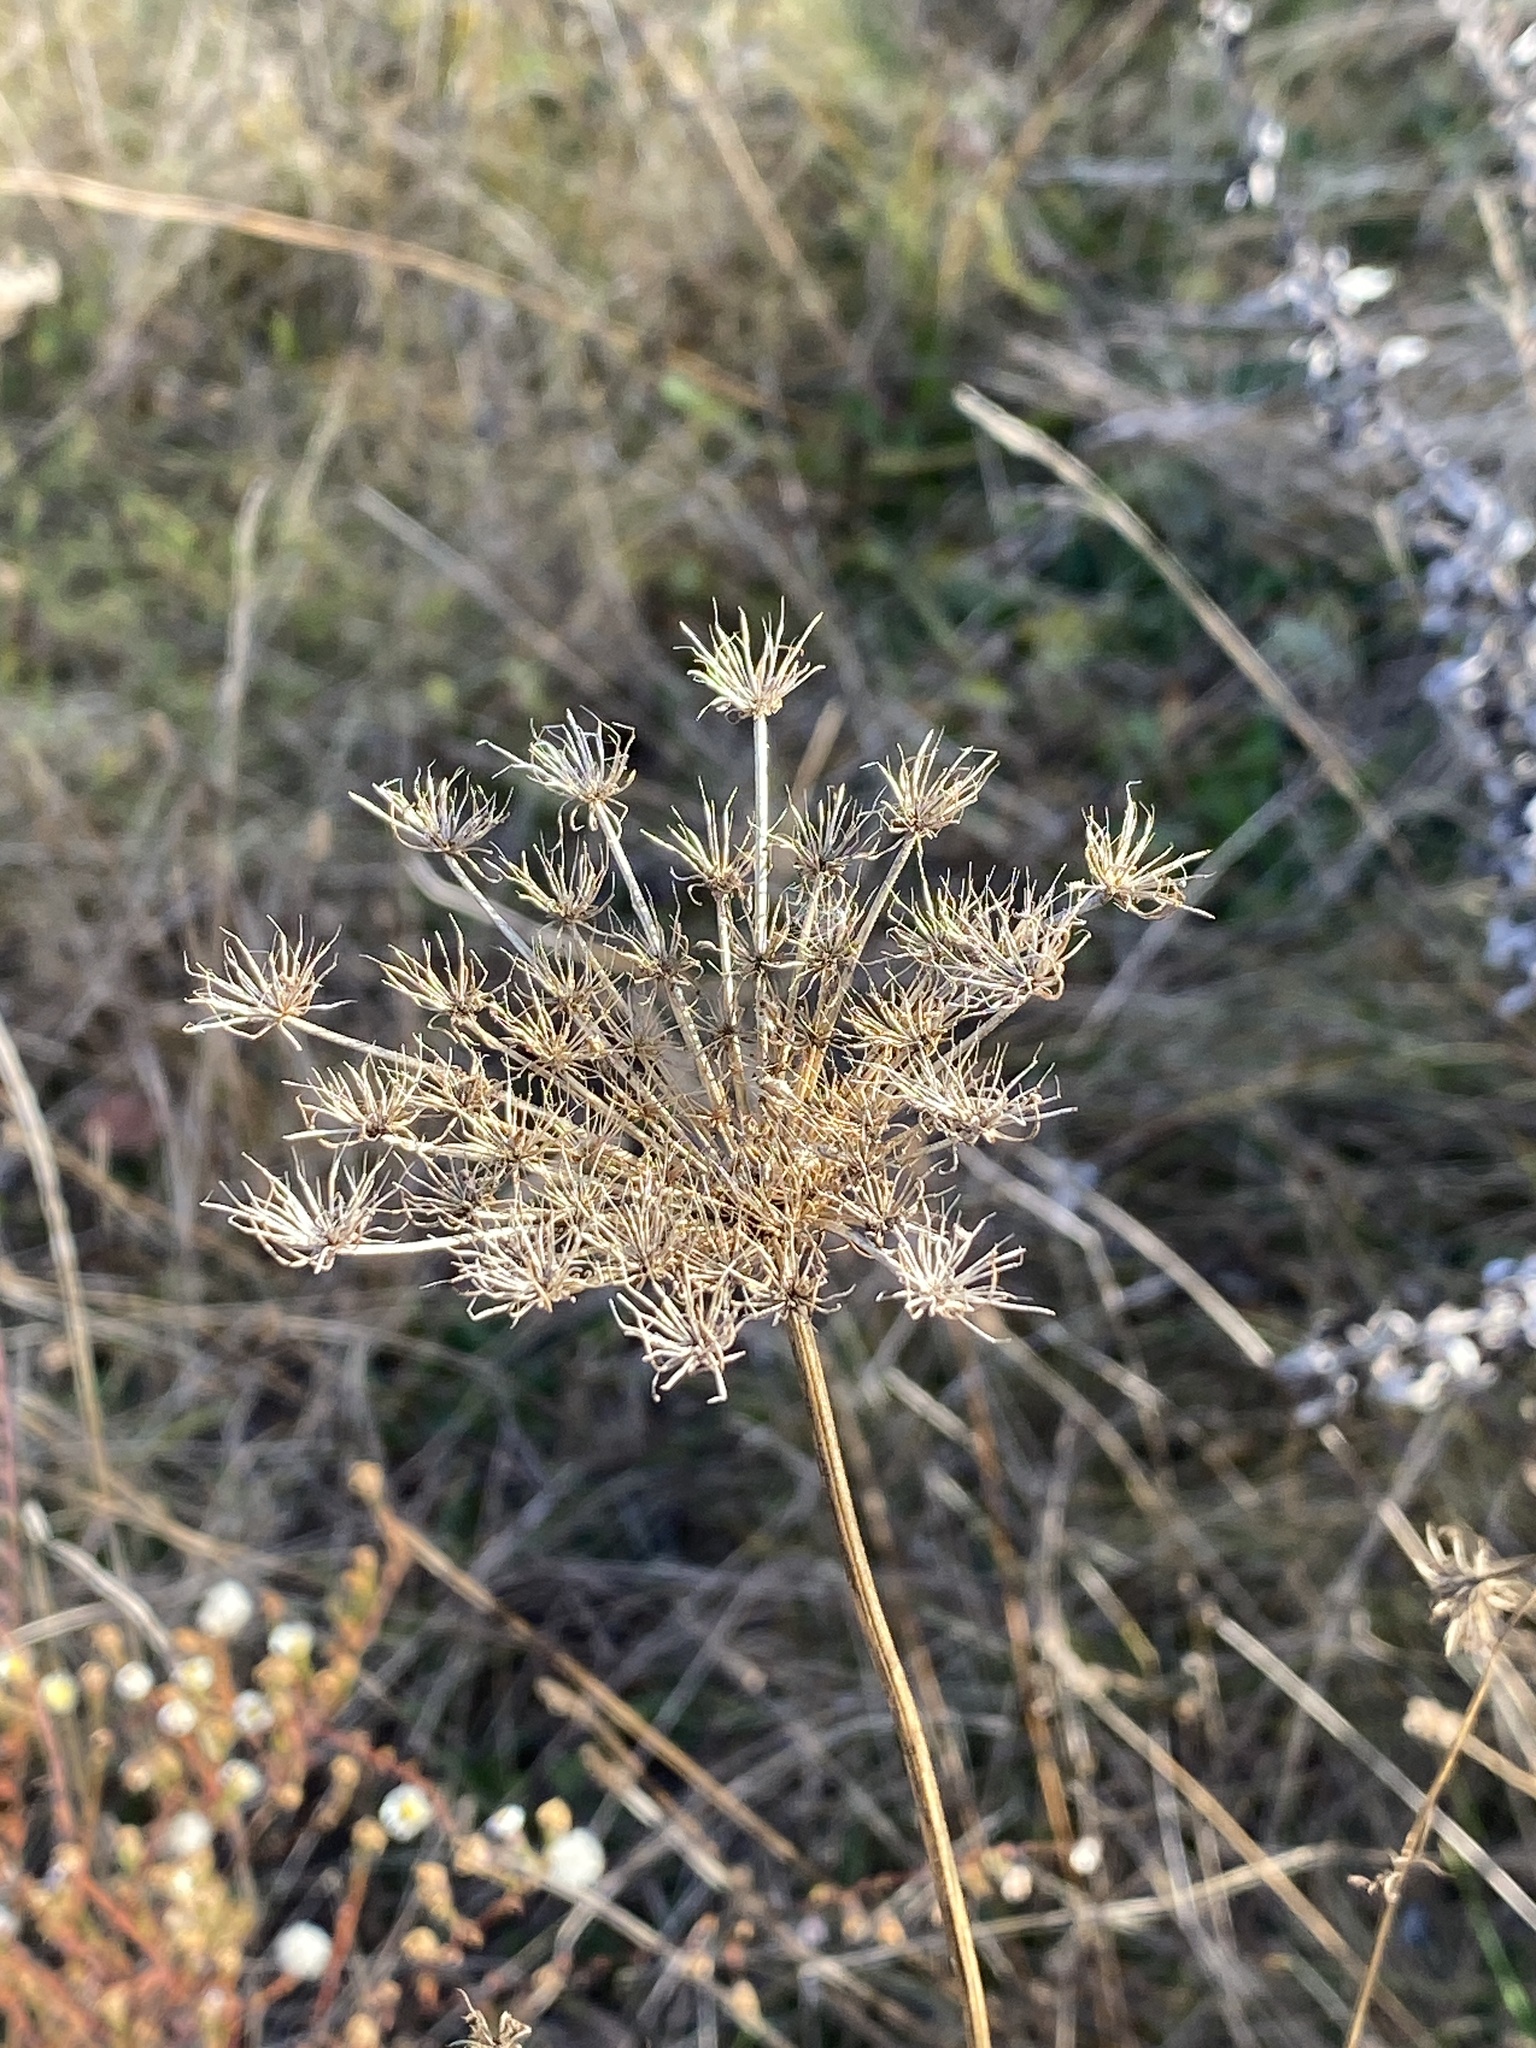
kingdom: Plantae
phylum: Tracheophyta
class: Magnoliopsida
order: Apiales
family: Apiaceae
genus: Daucus
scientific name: Daucus carota
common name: Wild carrot
